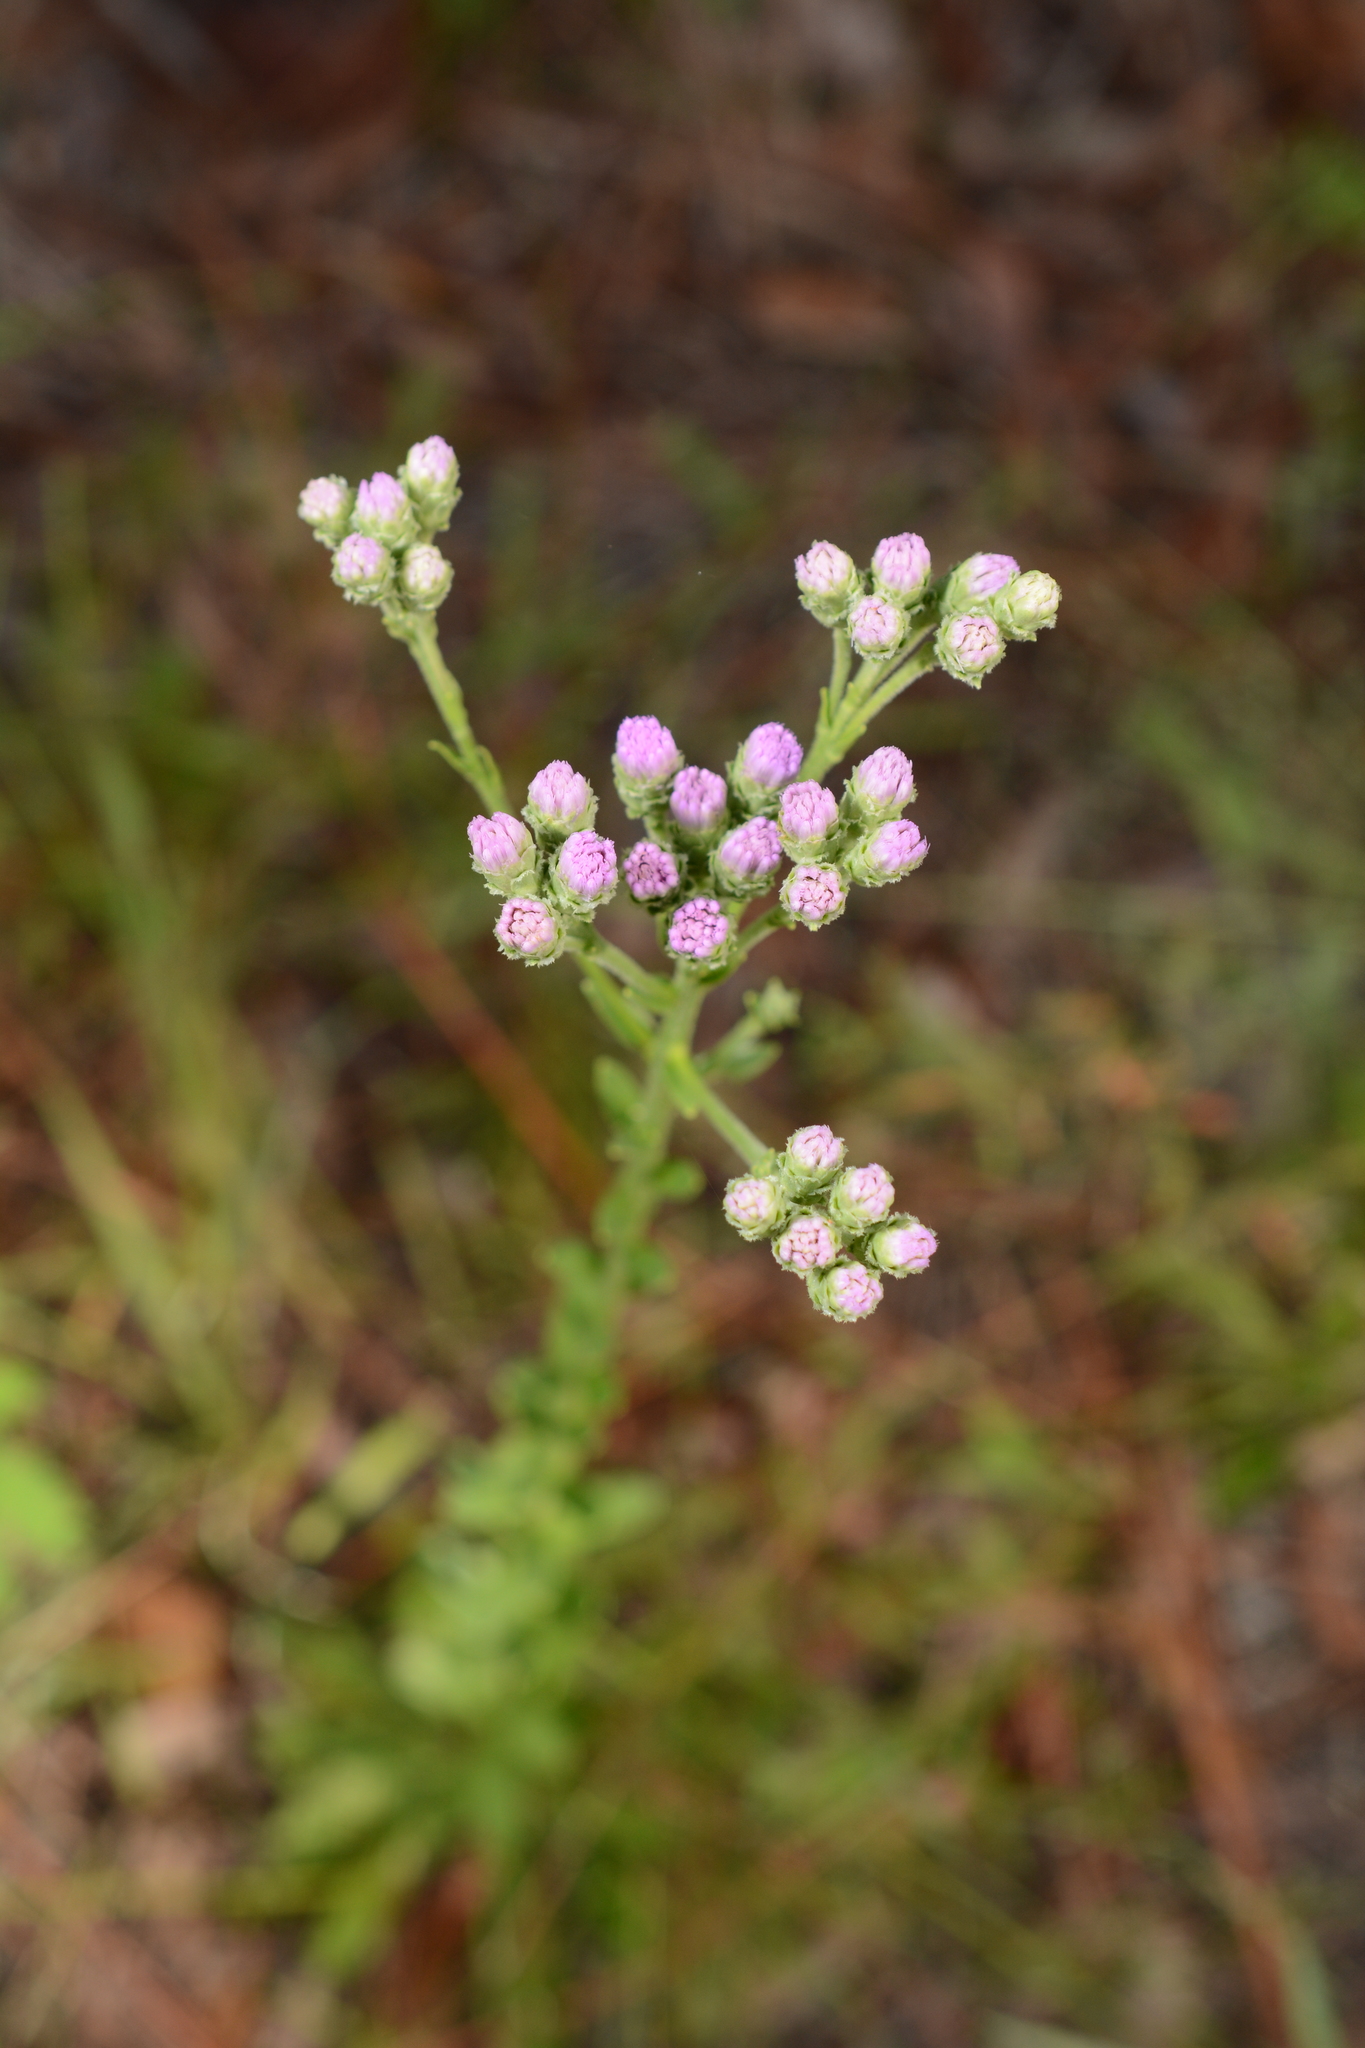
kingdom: Plantae
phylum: Tracheophyta
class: Magnoliopsida
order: Asterales
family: Asteraceae
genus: Carphephorus
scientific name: Carphephorus corymbosus
